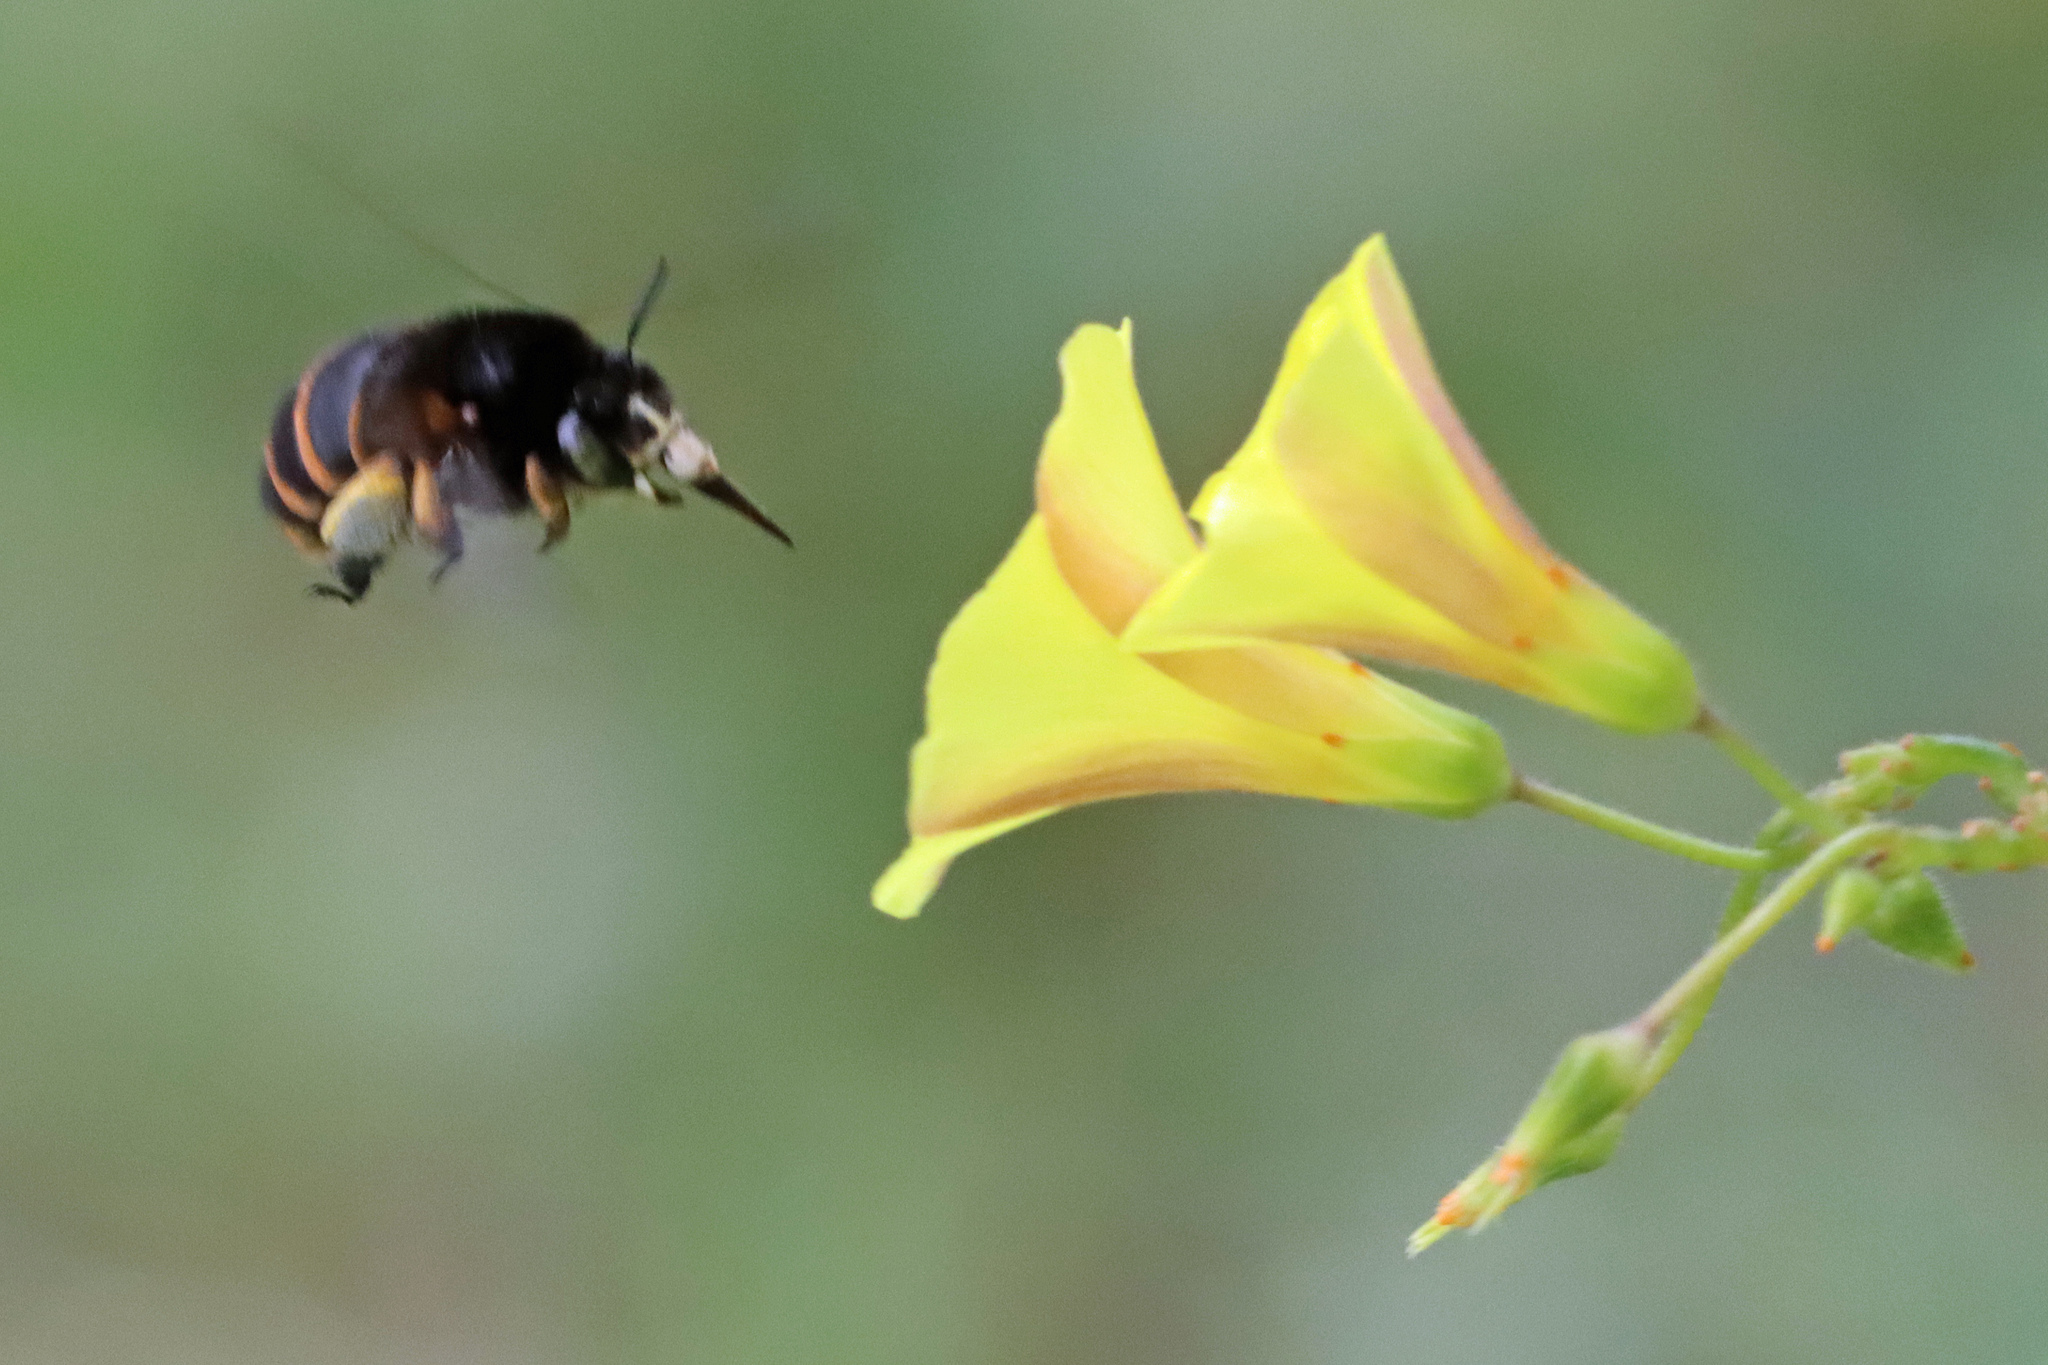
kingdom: Animalia
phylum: Arthropoda
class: Insecta
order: Hymenoptera
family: Apidae
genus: Amegilla
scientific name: Amegilla quadrifasciata
